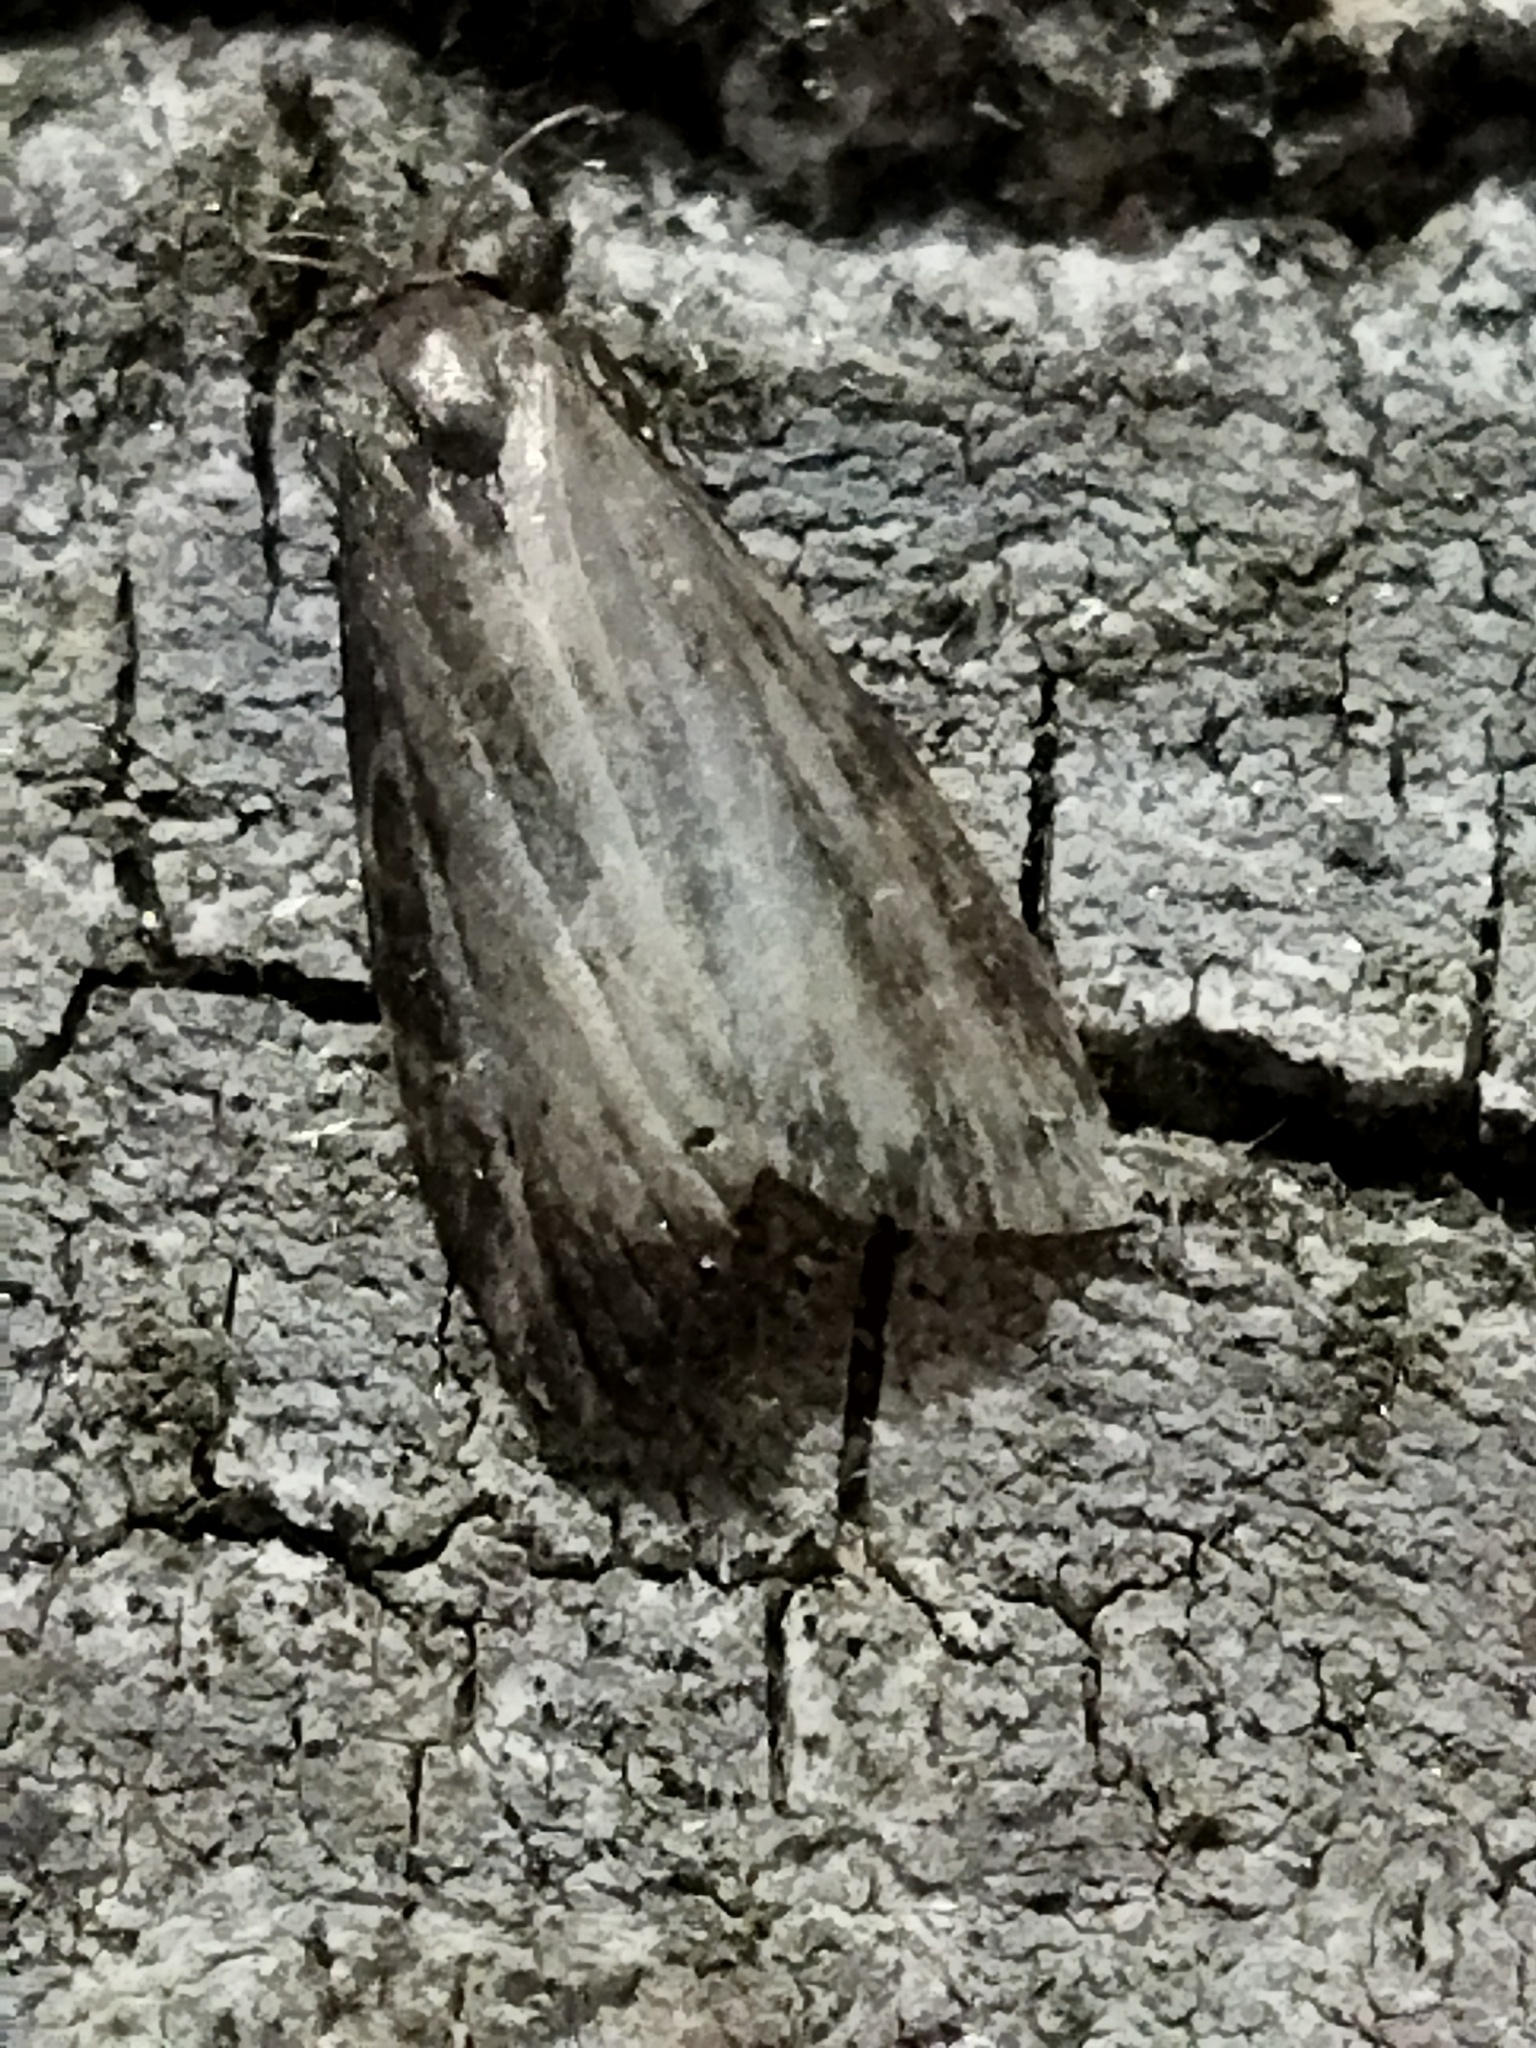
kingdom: Animalia
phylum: Arthropoda
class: Insecta
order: Lepidoptera
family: Pyralidae
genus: Lamoria
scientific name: Lamoria anella
